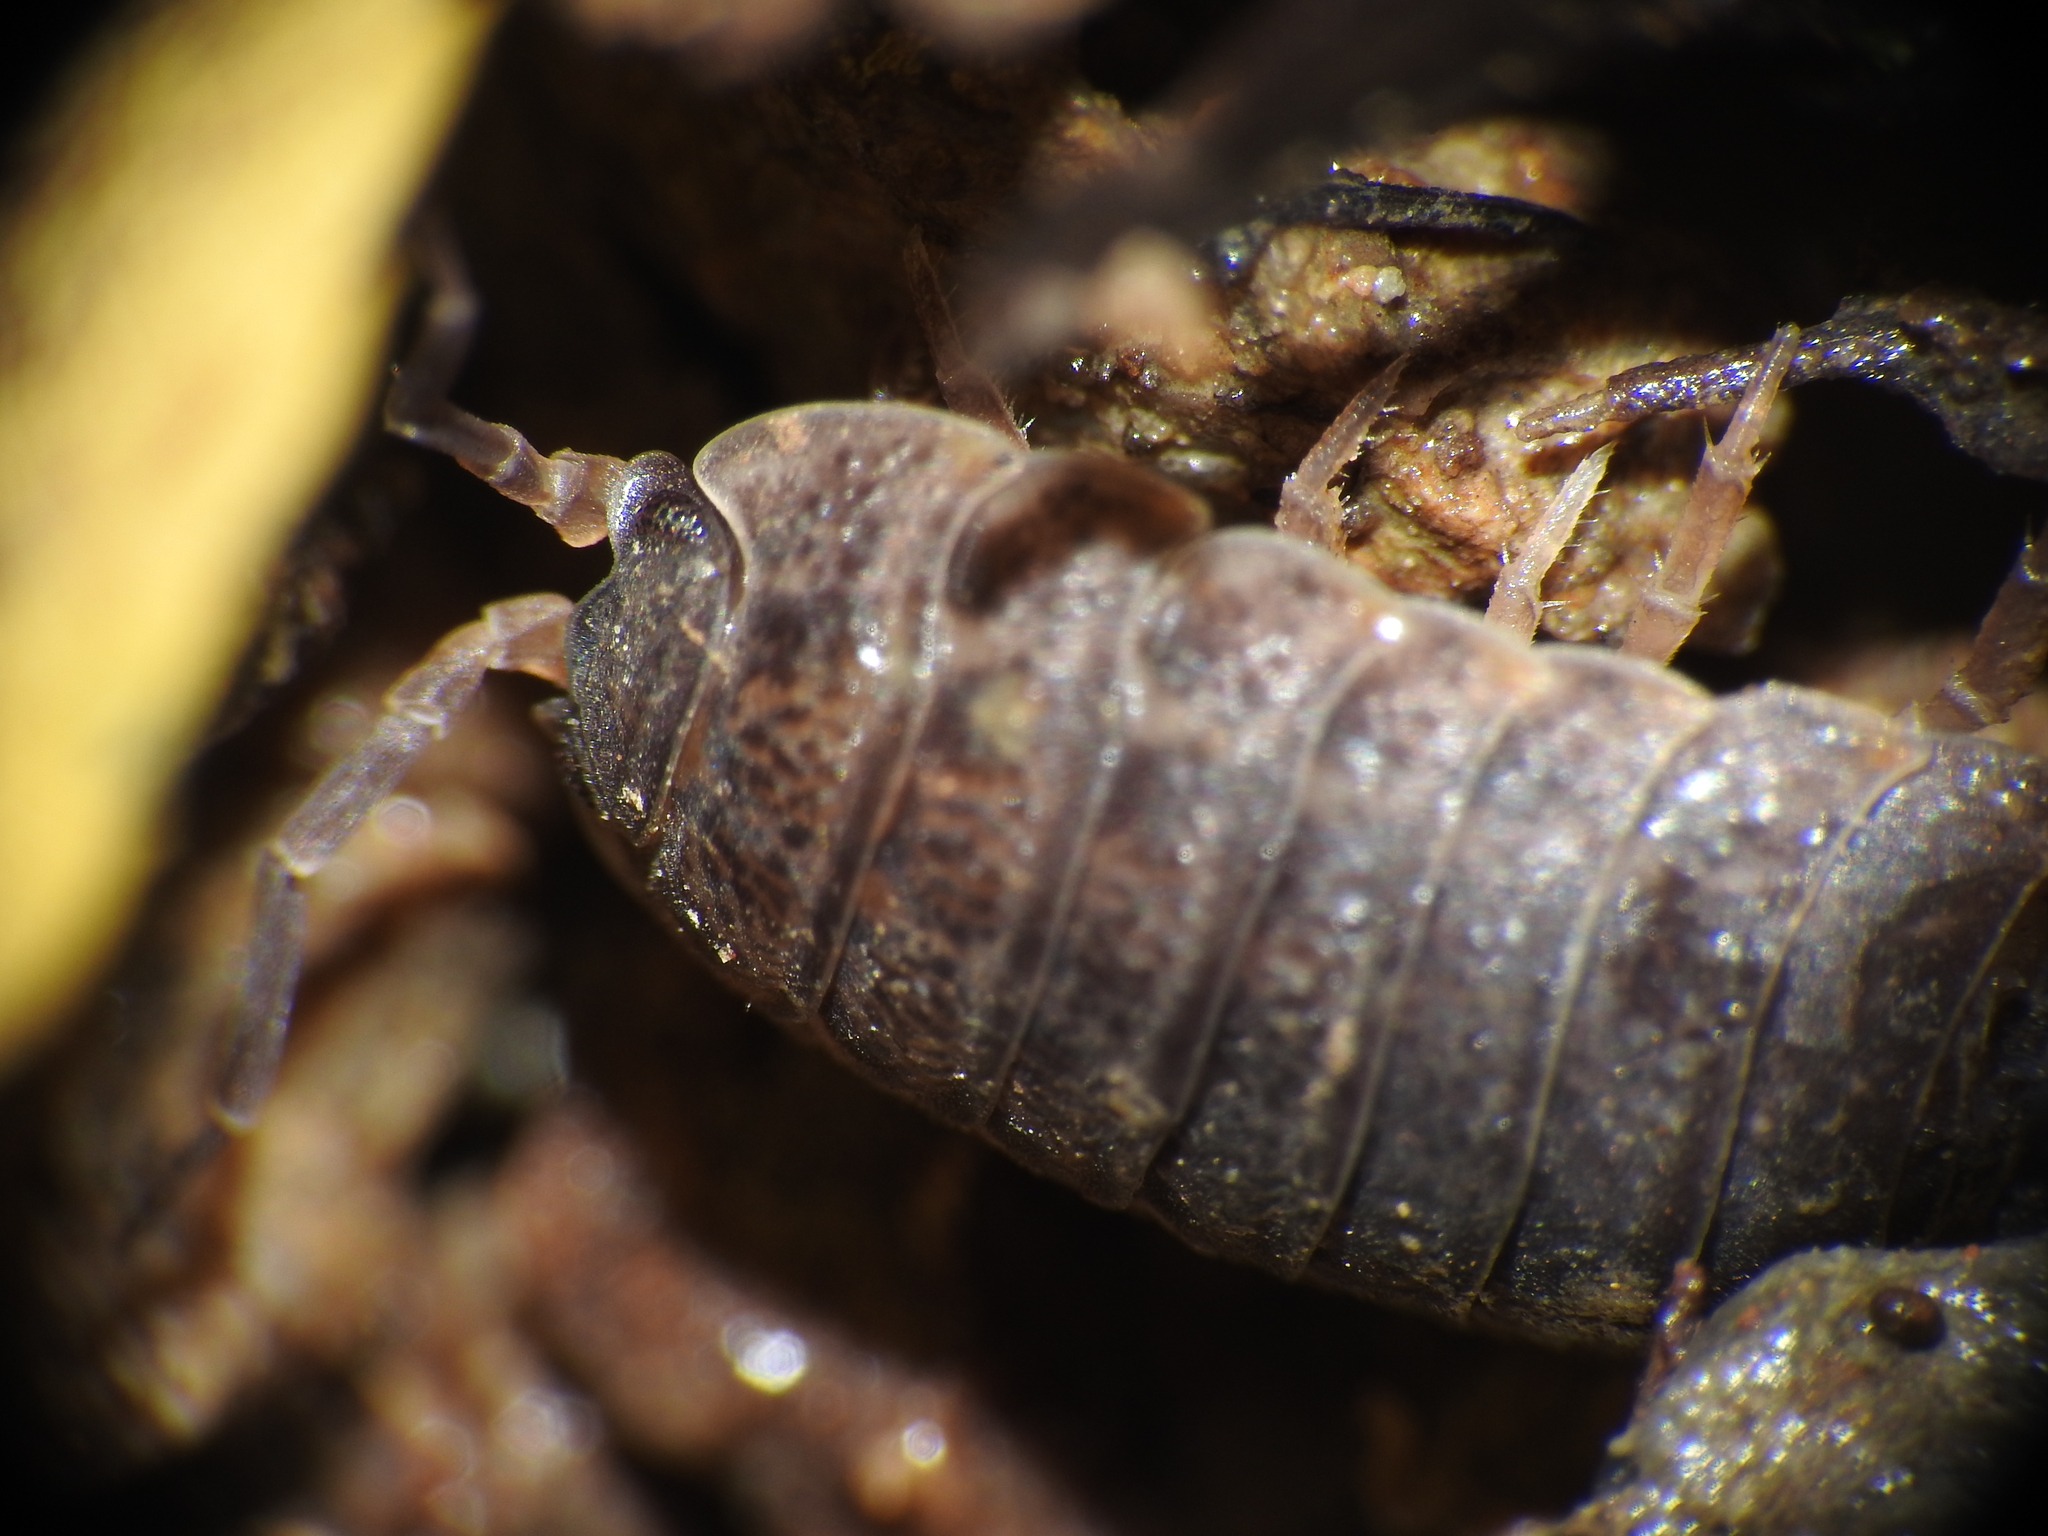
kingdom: Animalia
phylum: Arthropoda
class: Malacostraca
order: Isopoda
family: Trachelipodidae
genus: Trachelipus
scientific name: Trachelipus rathkii
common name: Isopod
